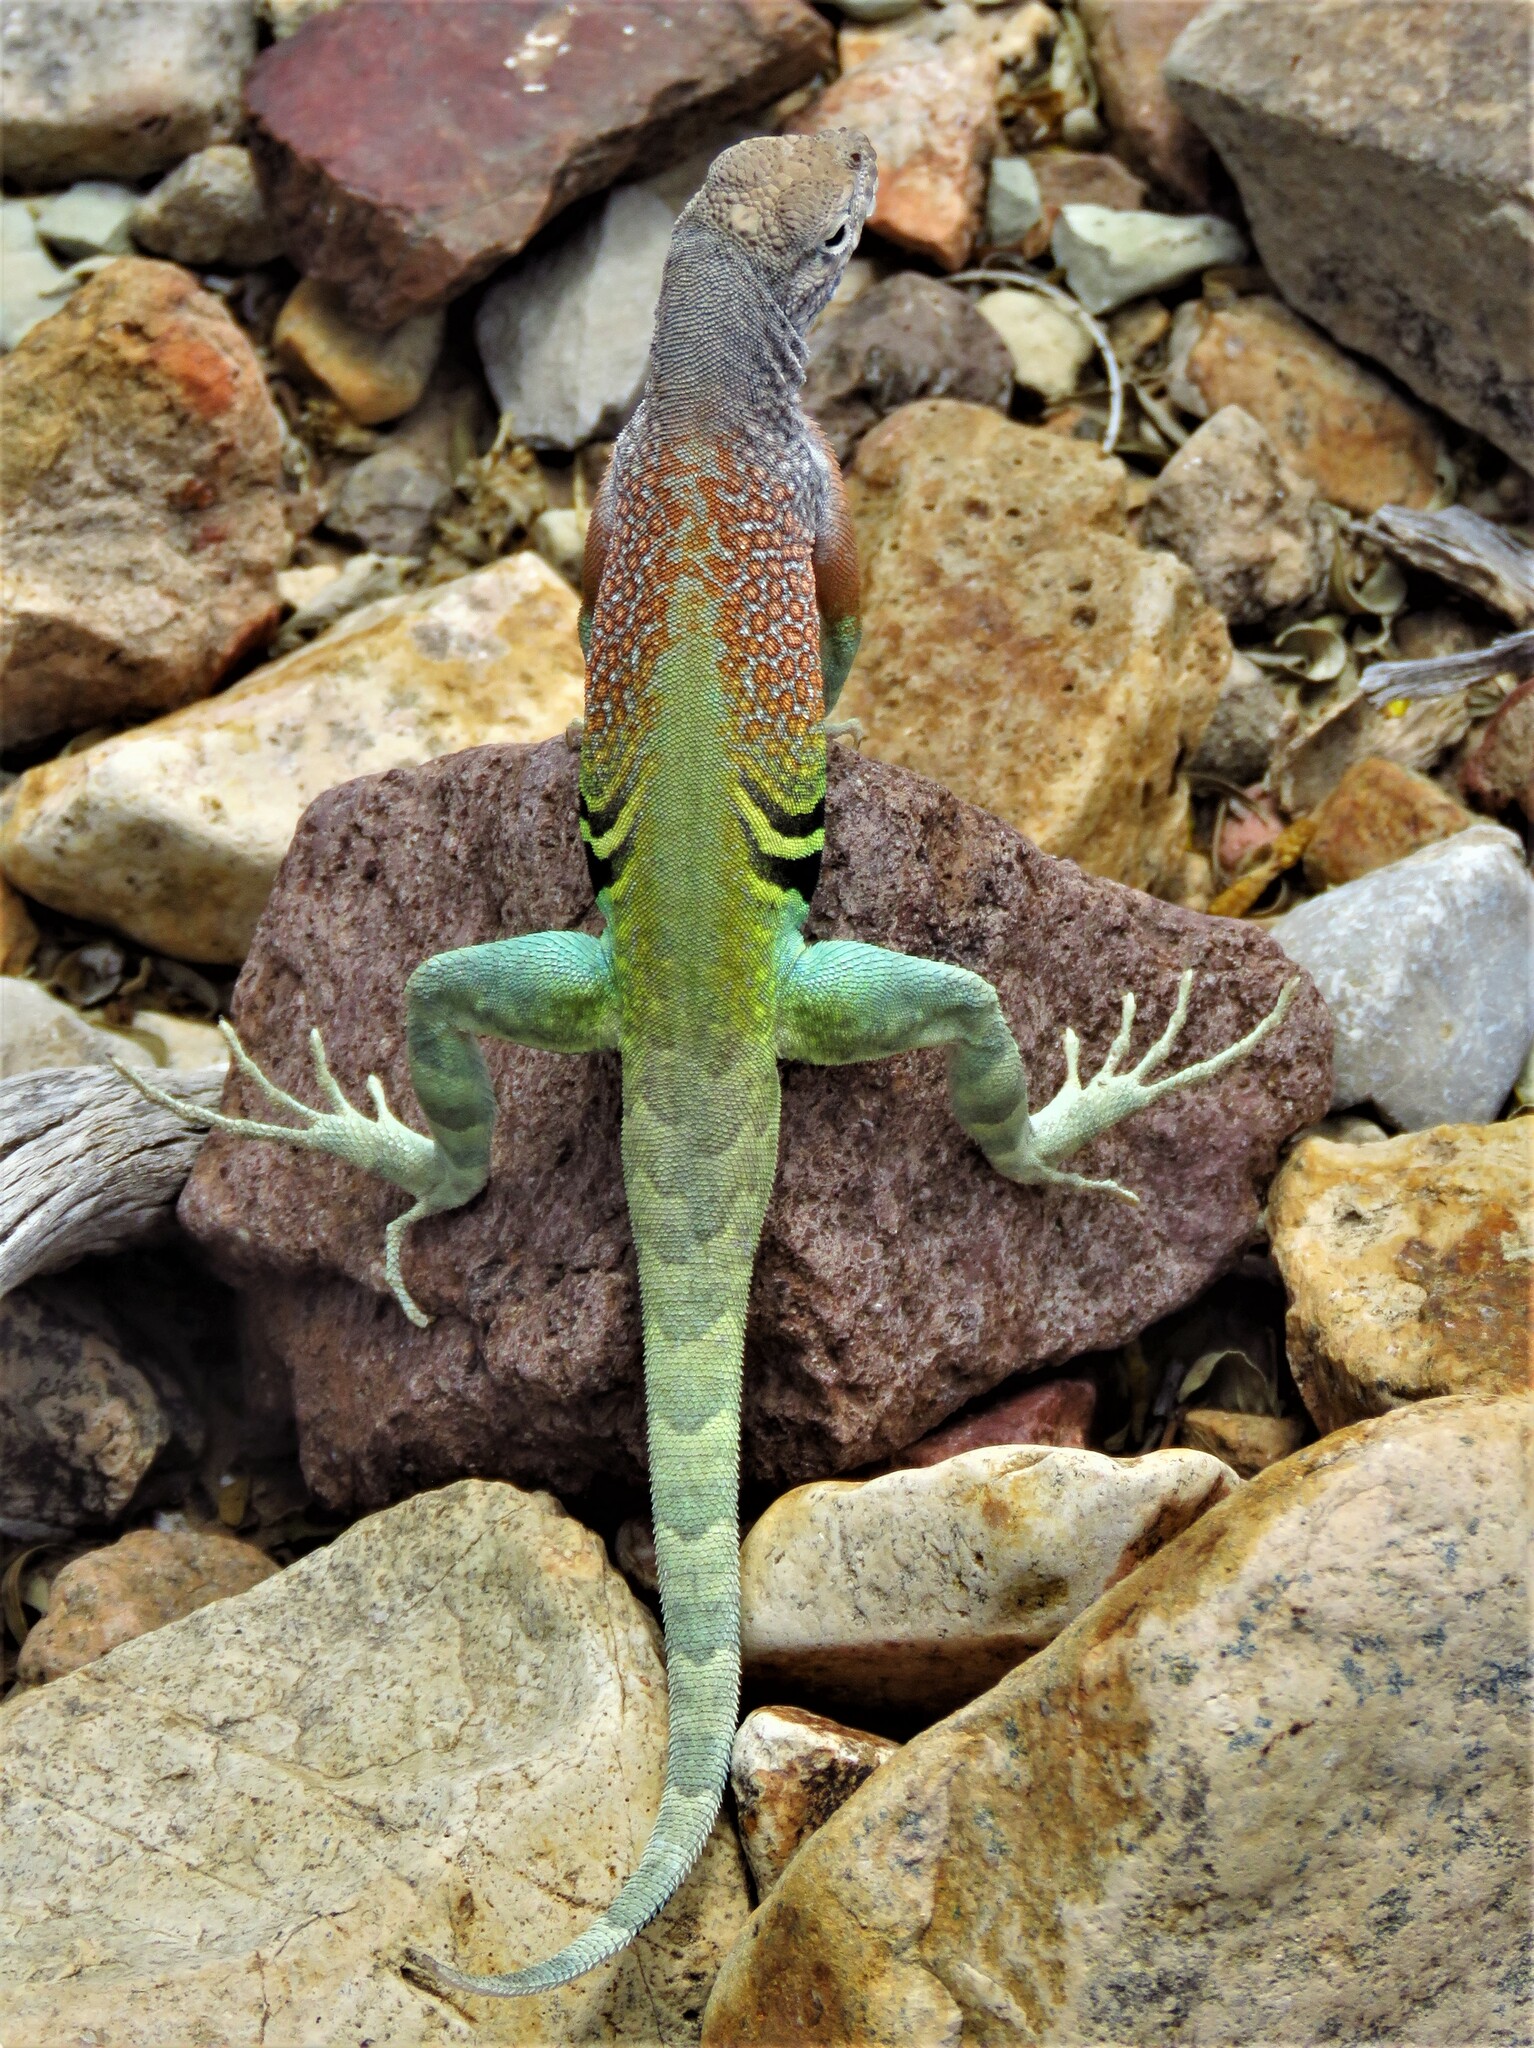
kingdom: Animalia
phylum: Chordata
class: Squamata
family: Phrynosomatidae
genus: Cophosaurus
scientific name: Cophosaurus texanus
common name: Greater earless lizard
